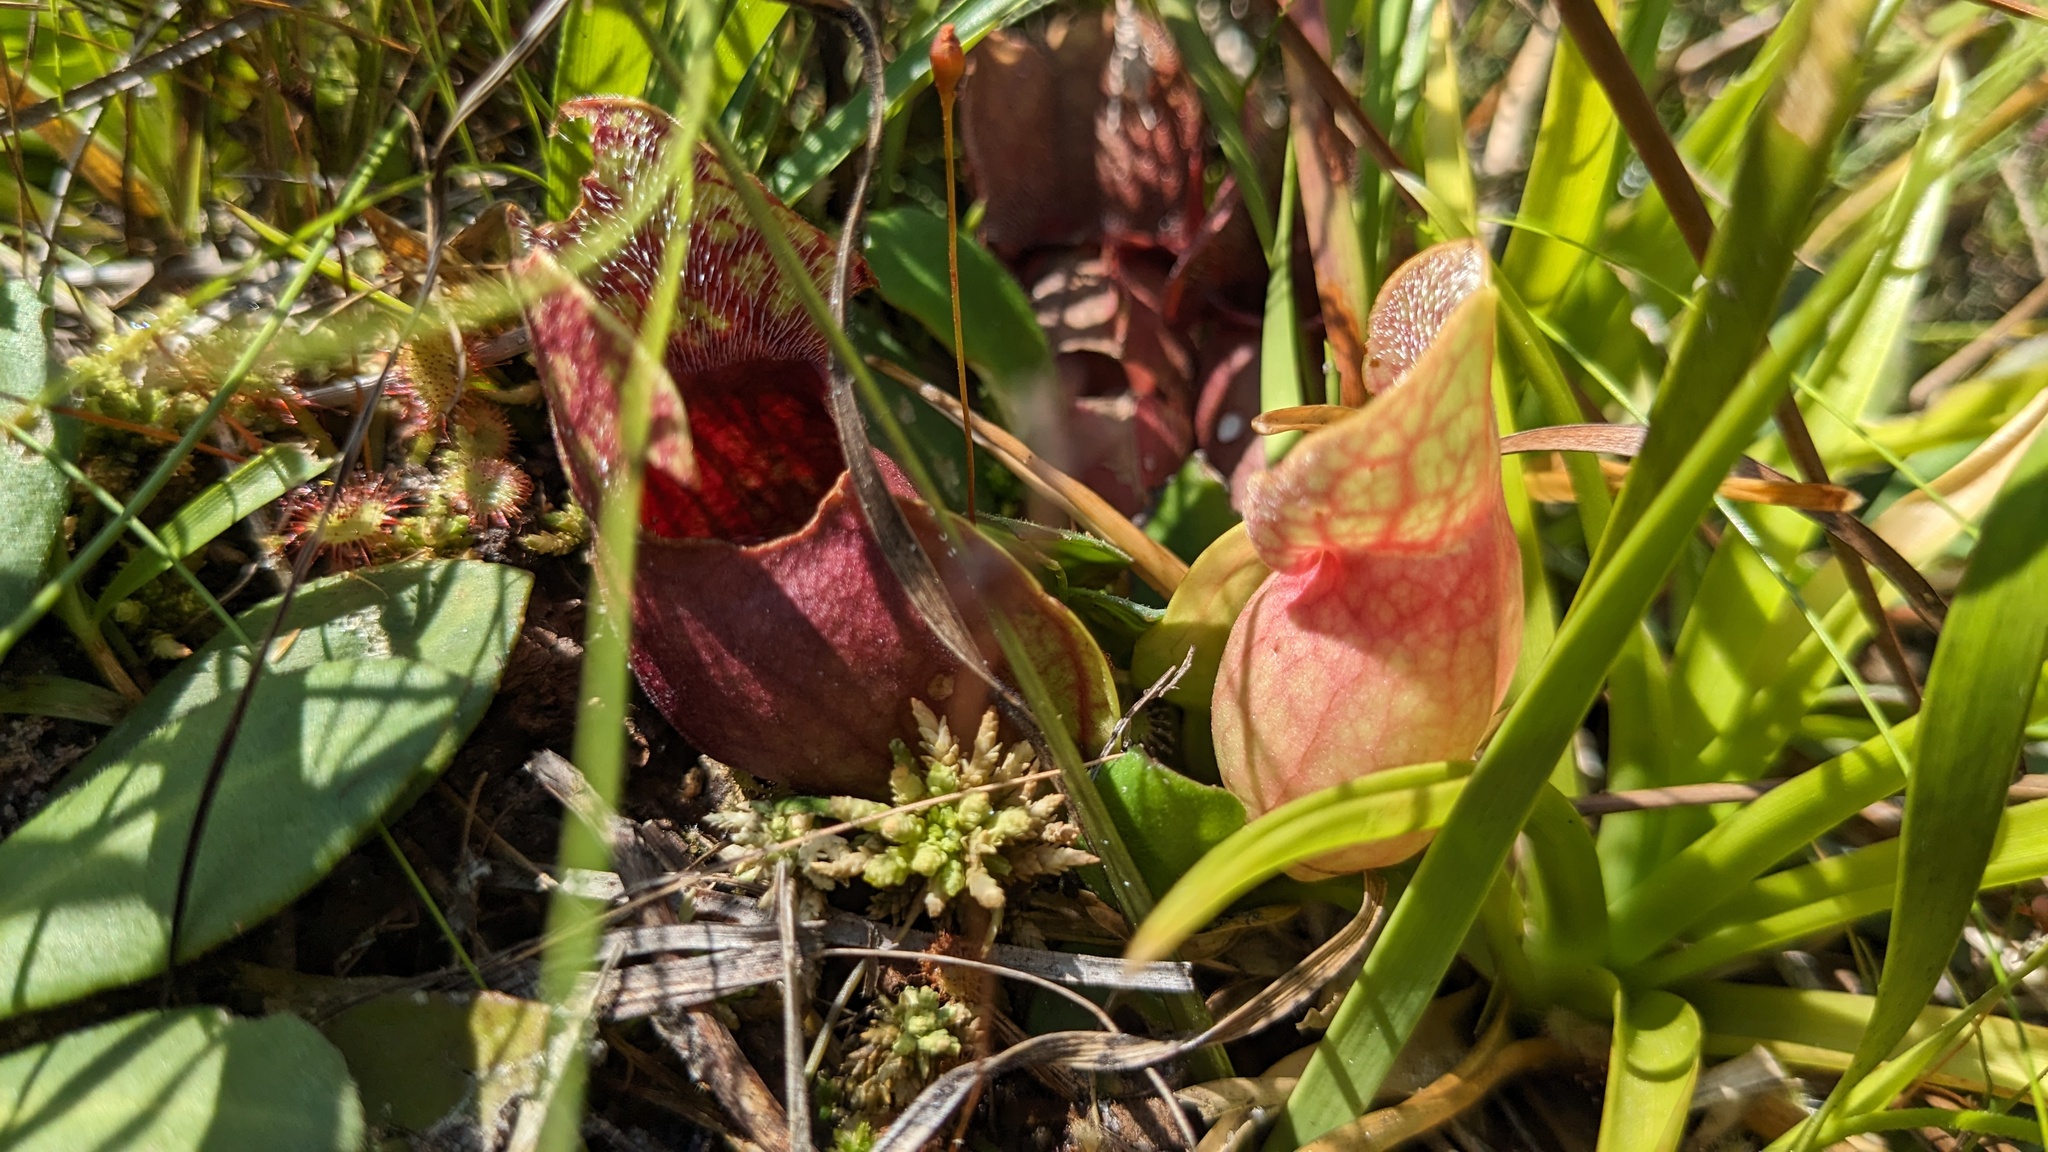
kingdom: Plantae
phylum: Tracheophyta
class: Magnoliopsida
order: Ericales
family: Sarraceniaceae
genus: Sarracenia
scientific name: Sarracenia rosea
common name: Pink pitcherplant
